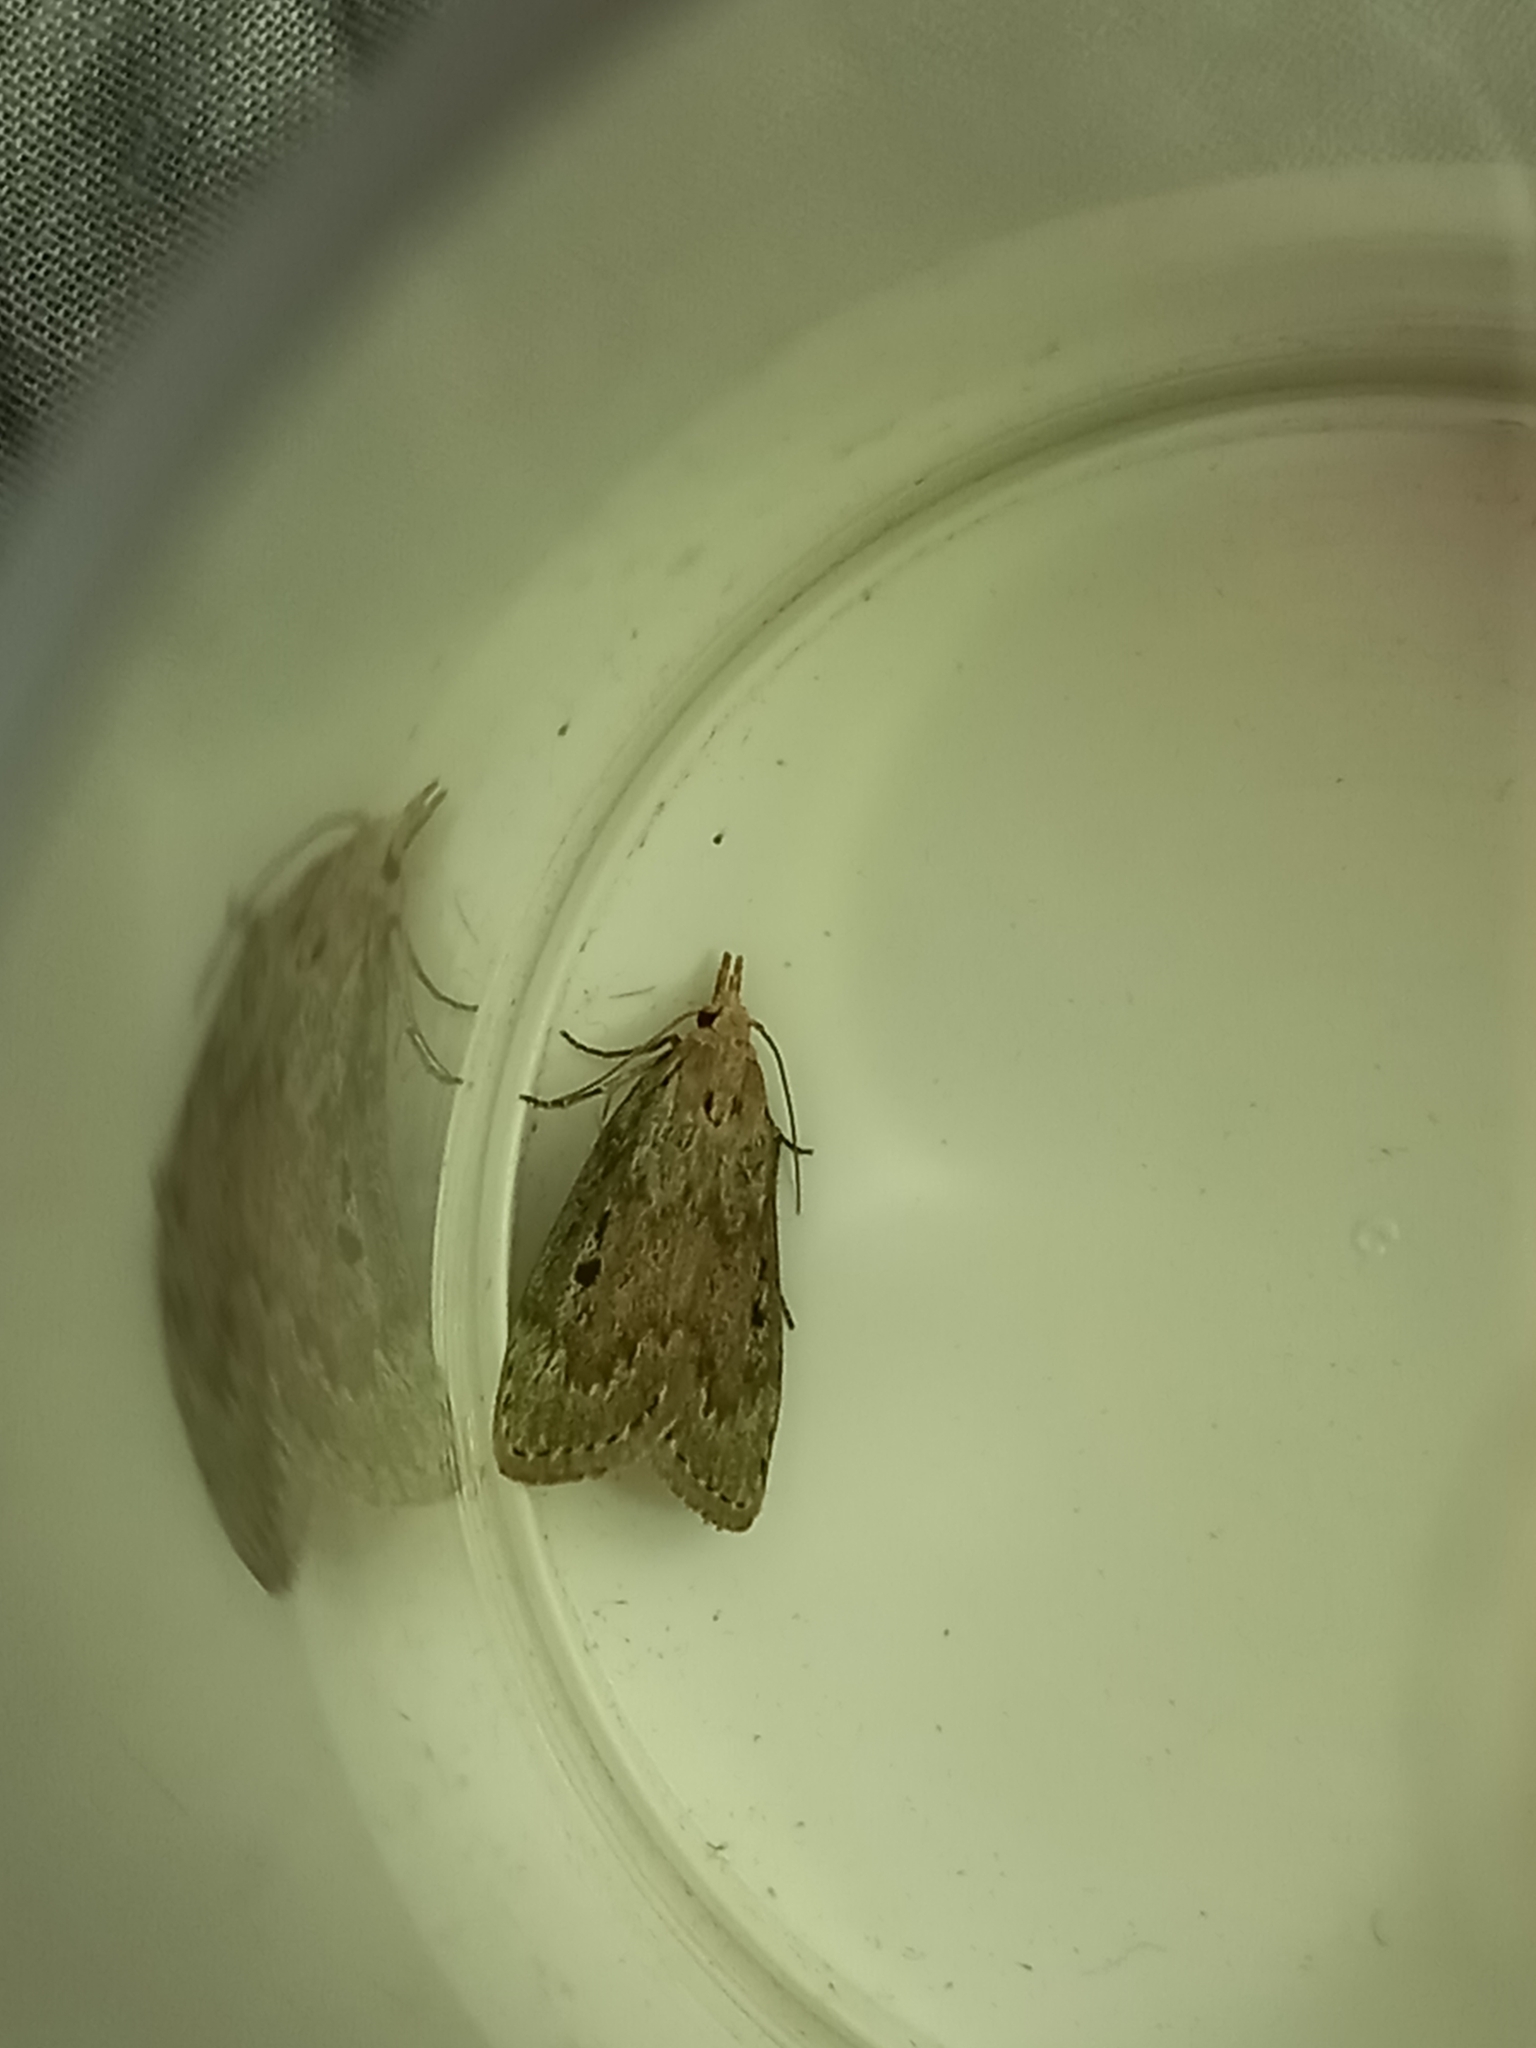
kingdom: Animalia
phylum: Arthropoda
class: Insecta
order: Lepidoptera
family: Pyralidae
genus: Aphomia
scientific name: Aphomia sociella
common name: Bee moth
